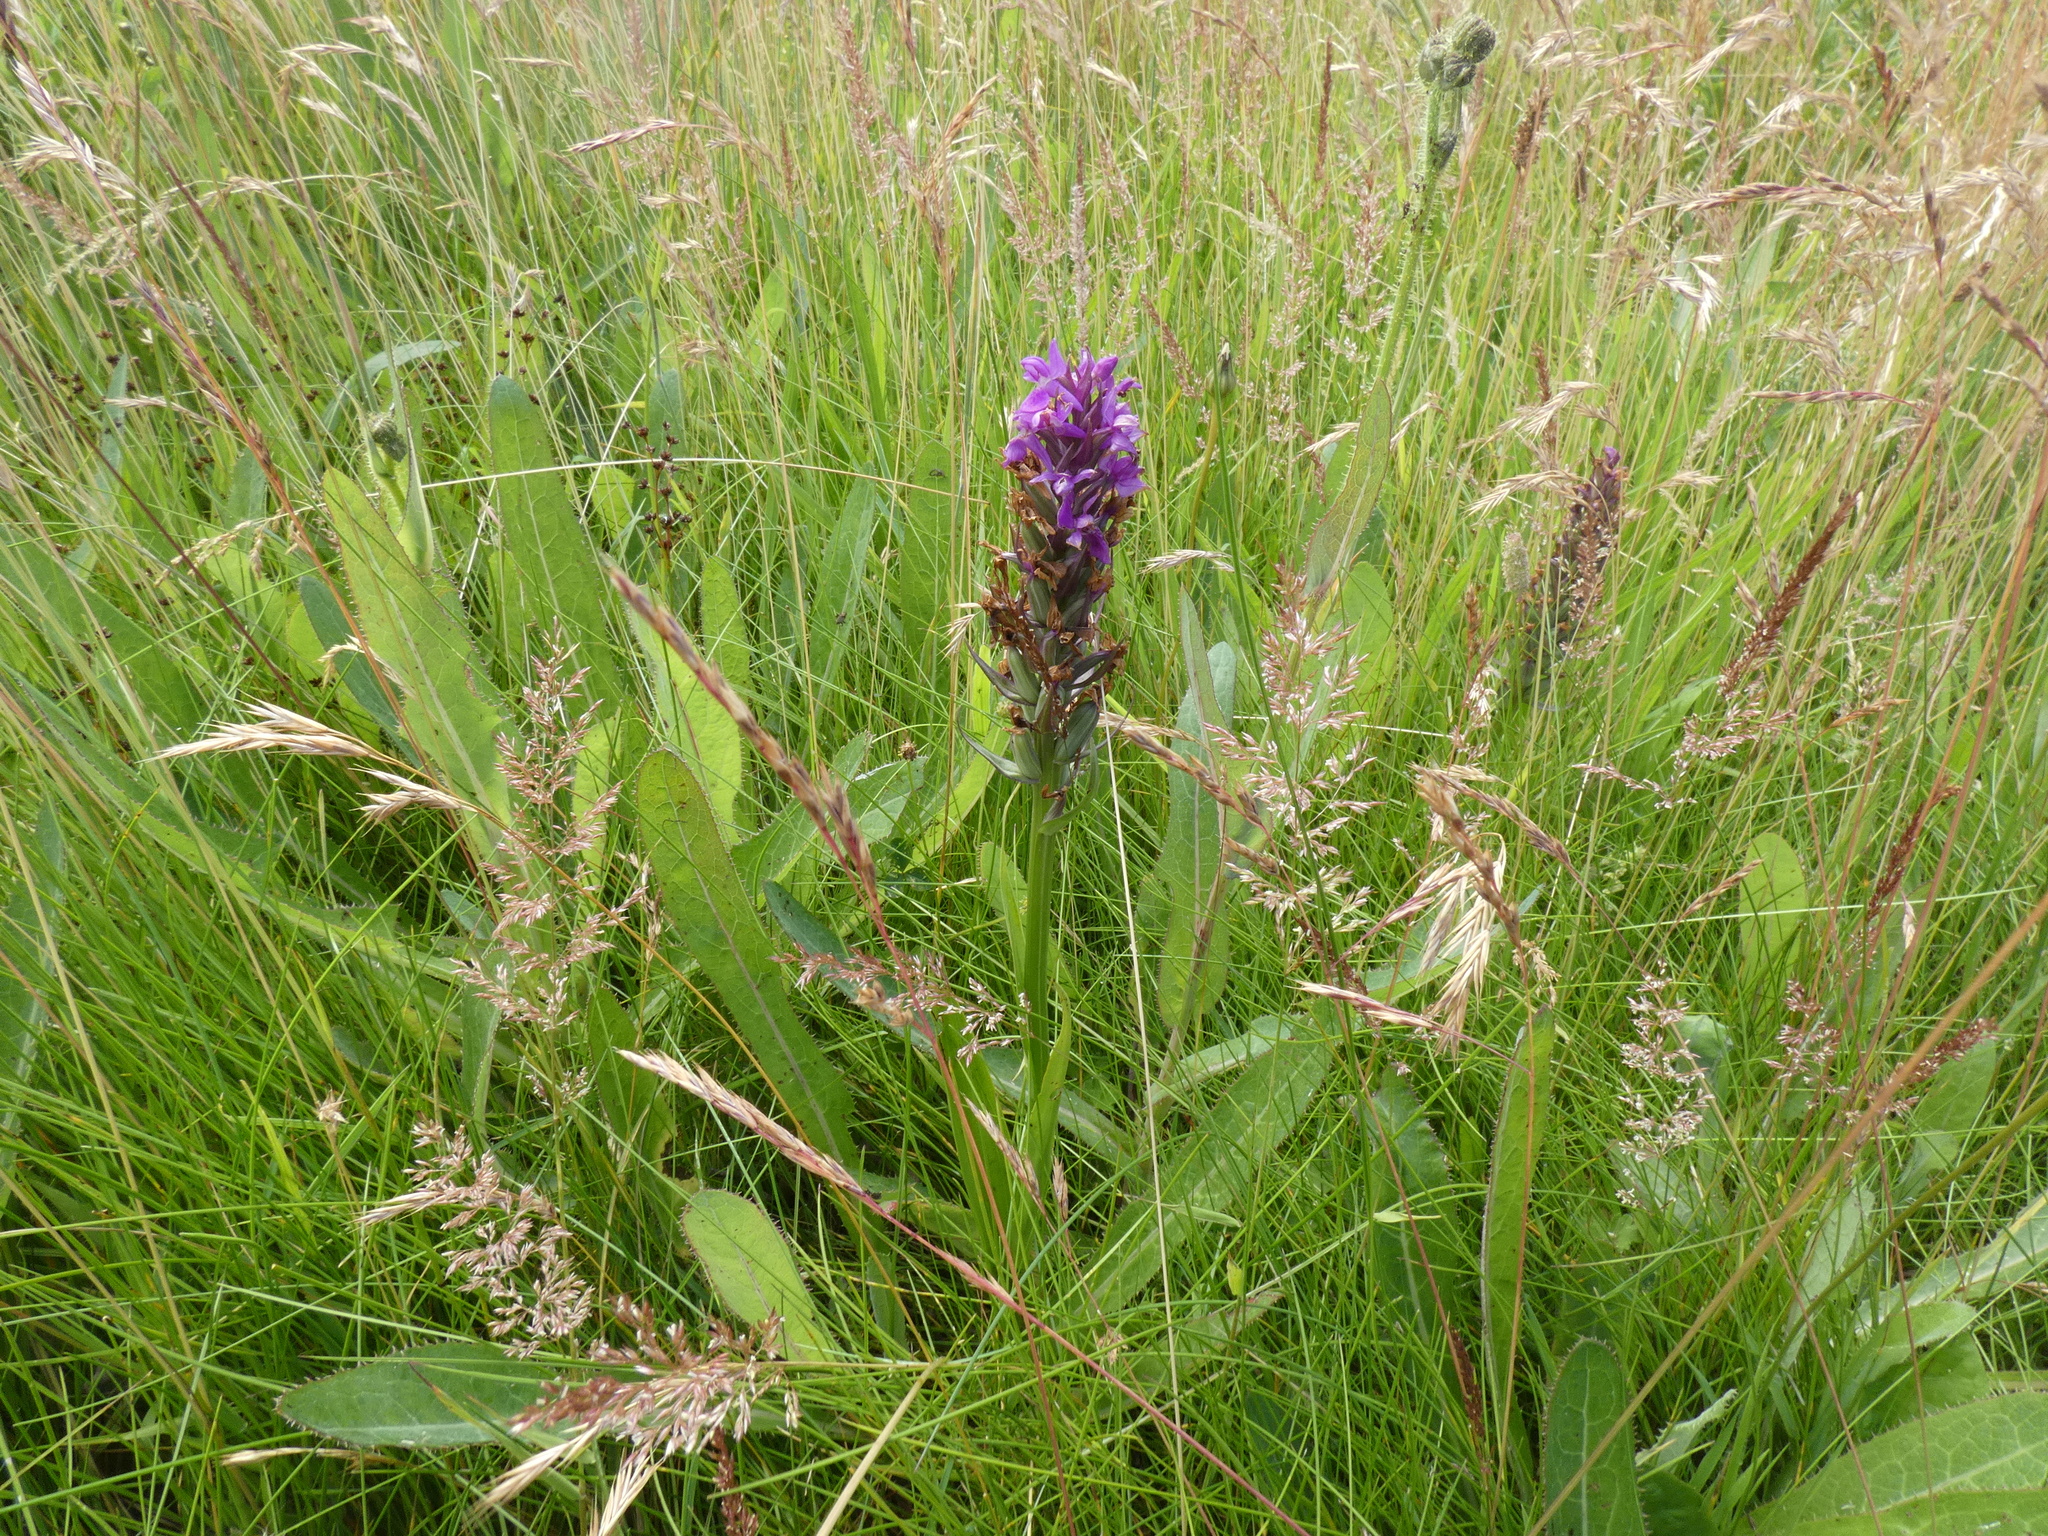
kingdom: Plantae
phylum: Tracheophyta
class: Liliopsida
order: Asparagales
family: Orchidaceae
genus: Dactylorhiza
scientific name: Dactylorhiza majalis
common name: Marsh orchid
